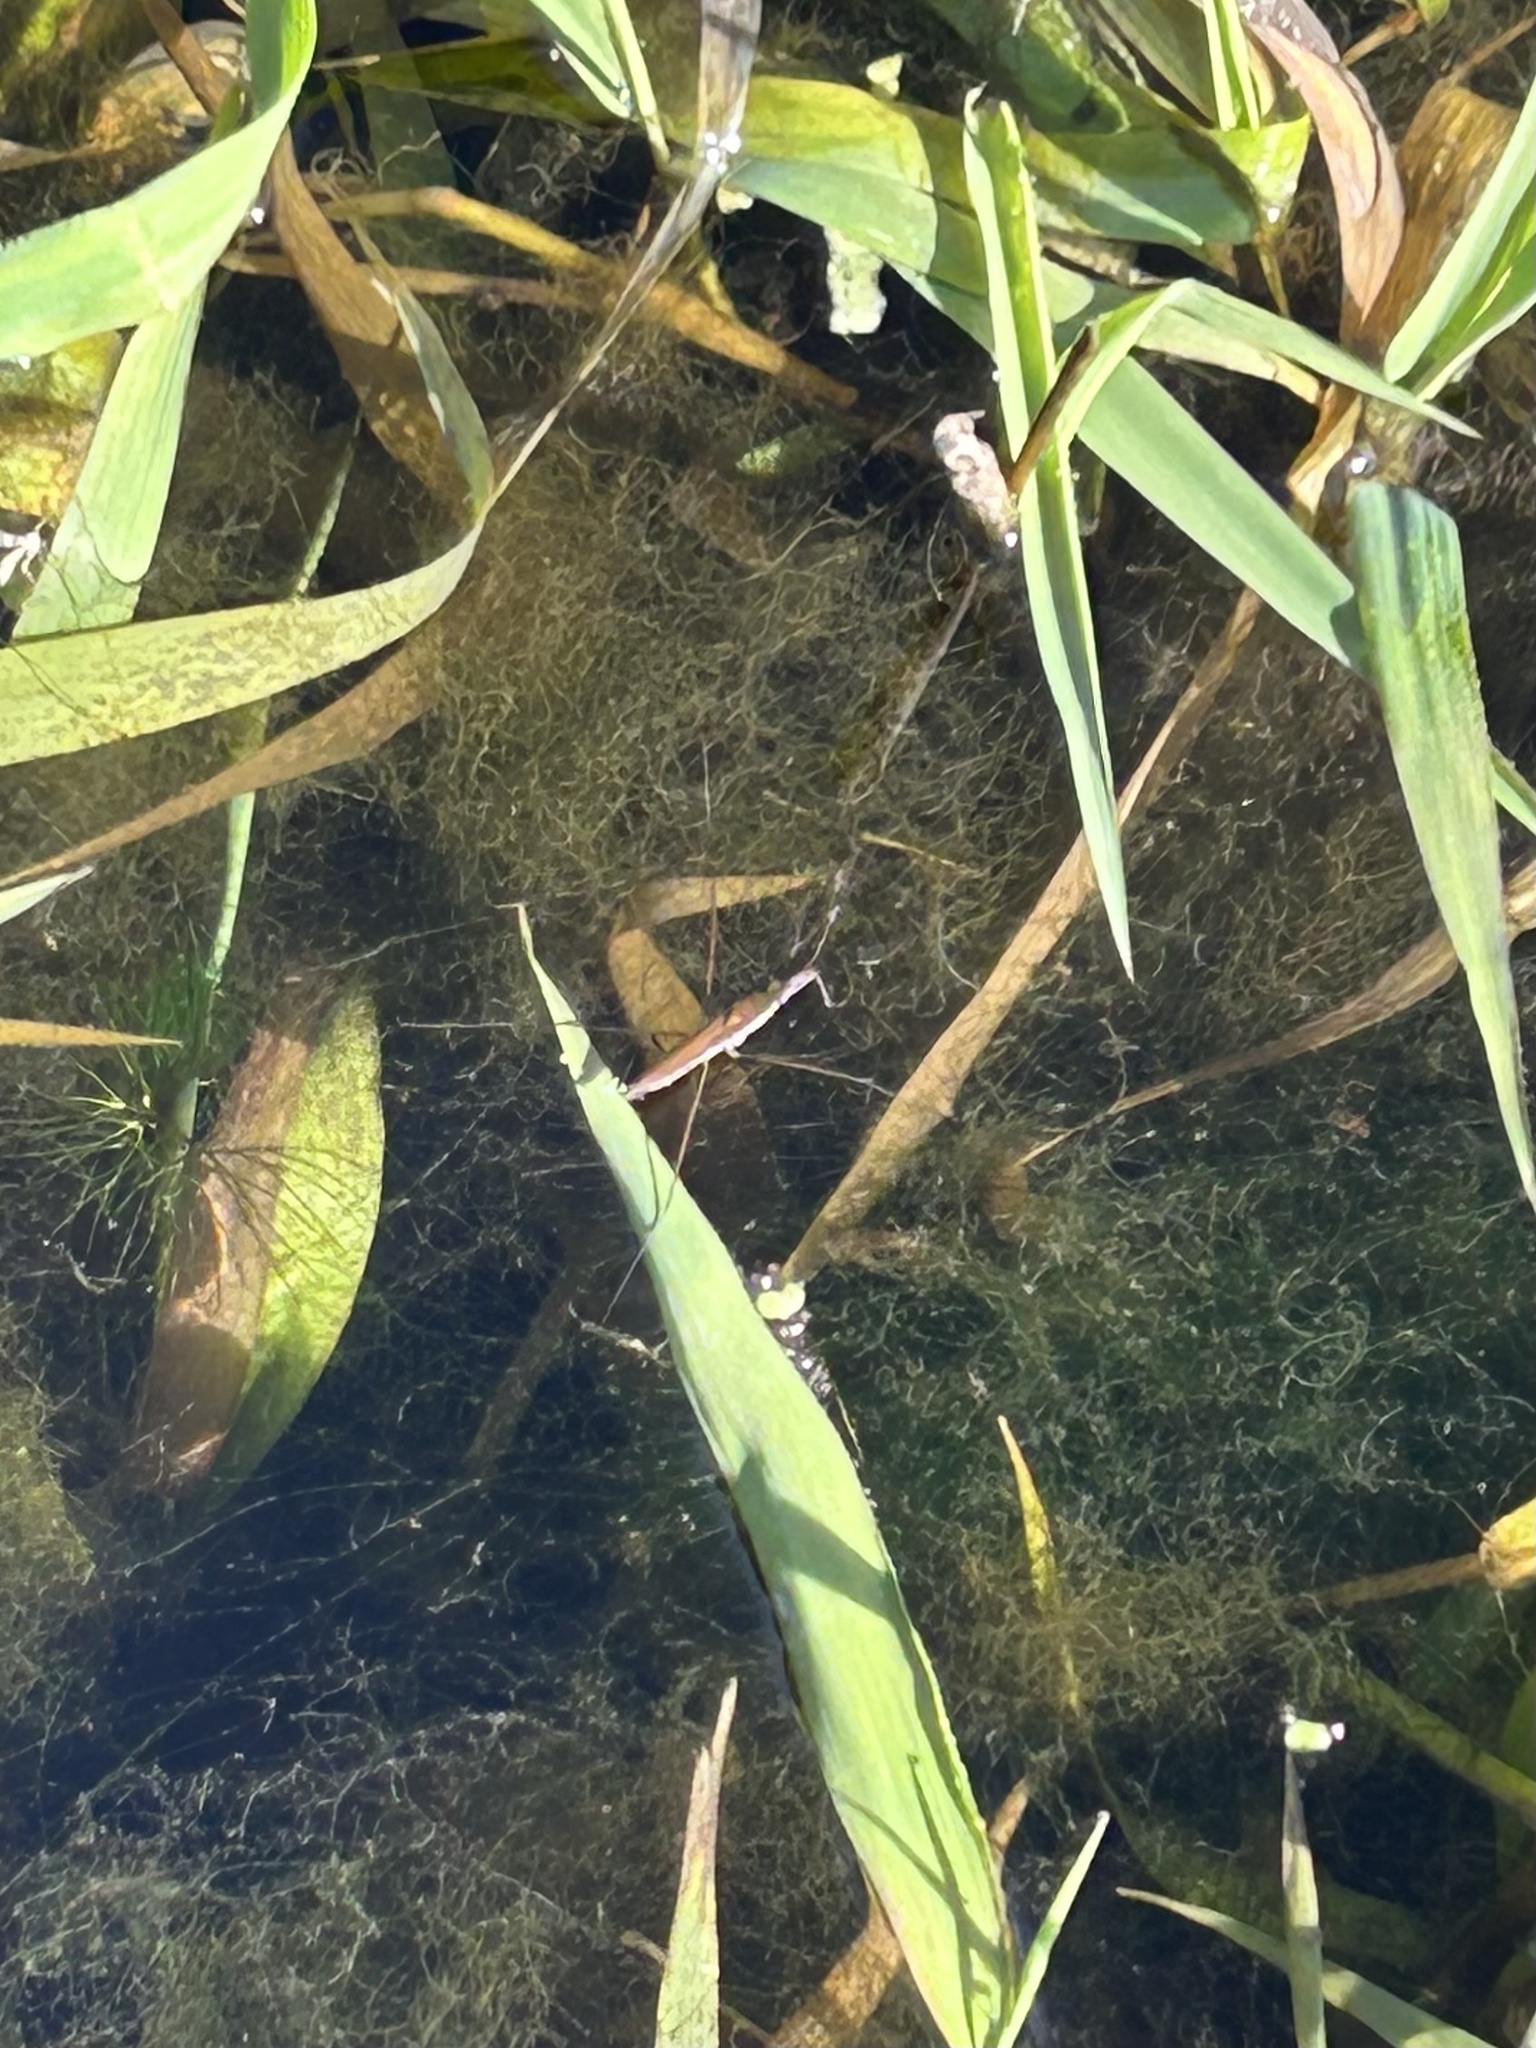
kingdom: Animalia
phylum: Arthropoda
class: Insecta
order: Hemiptera
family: Gerridae
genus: Limnoporus
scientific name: Limnoporus notabilis
